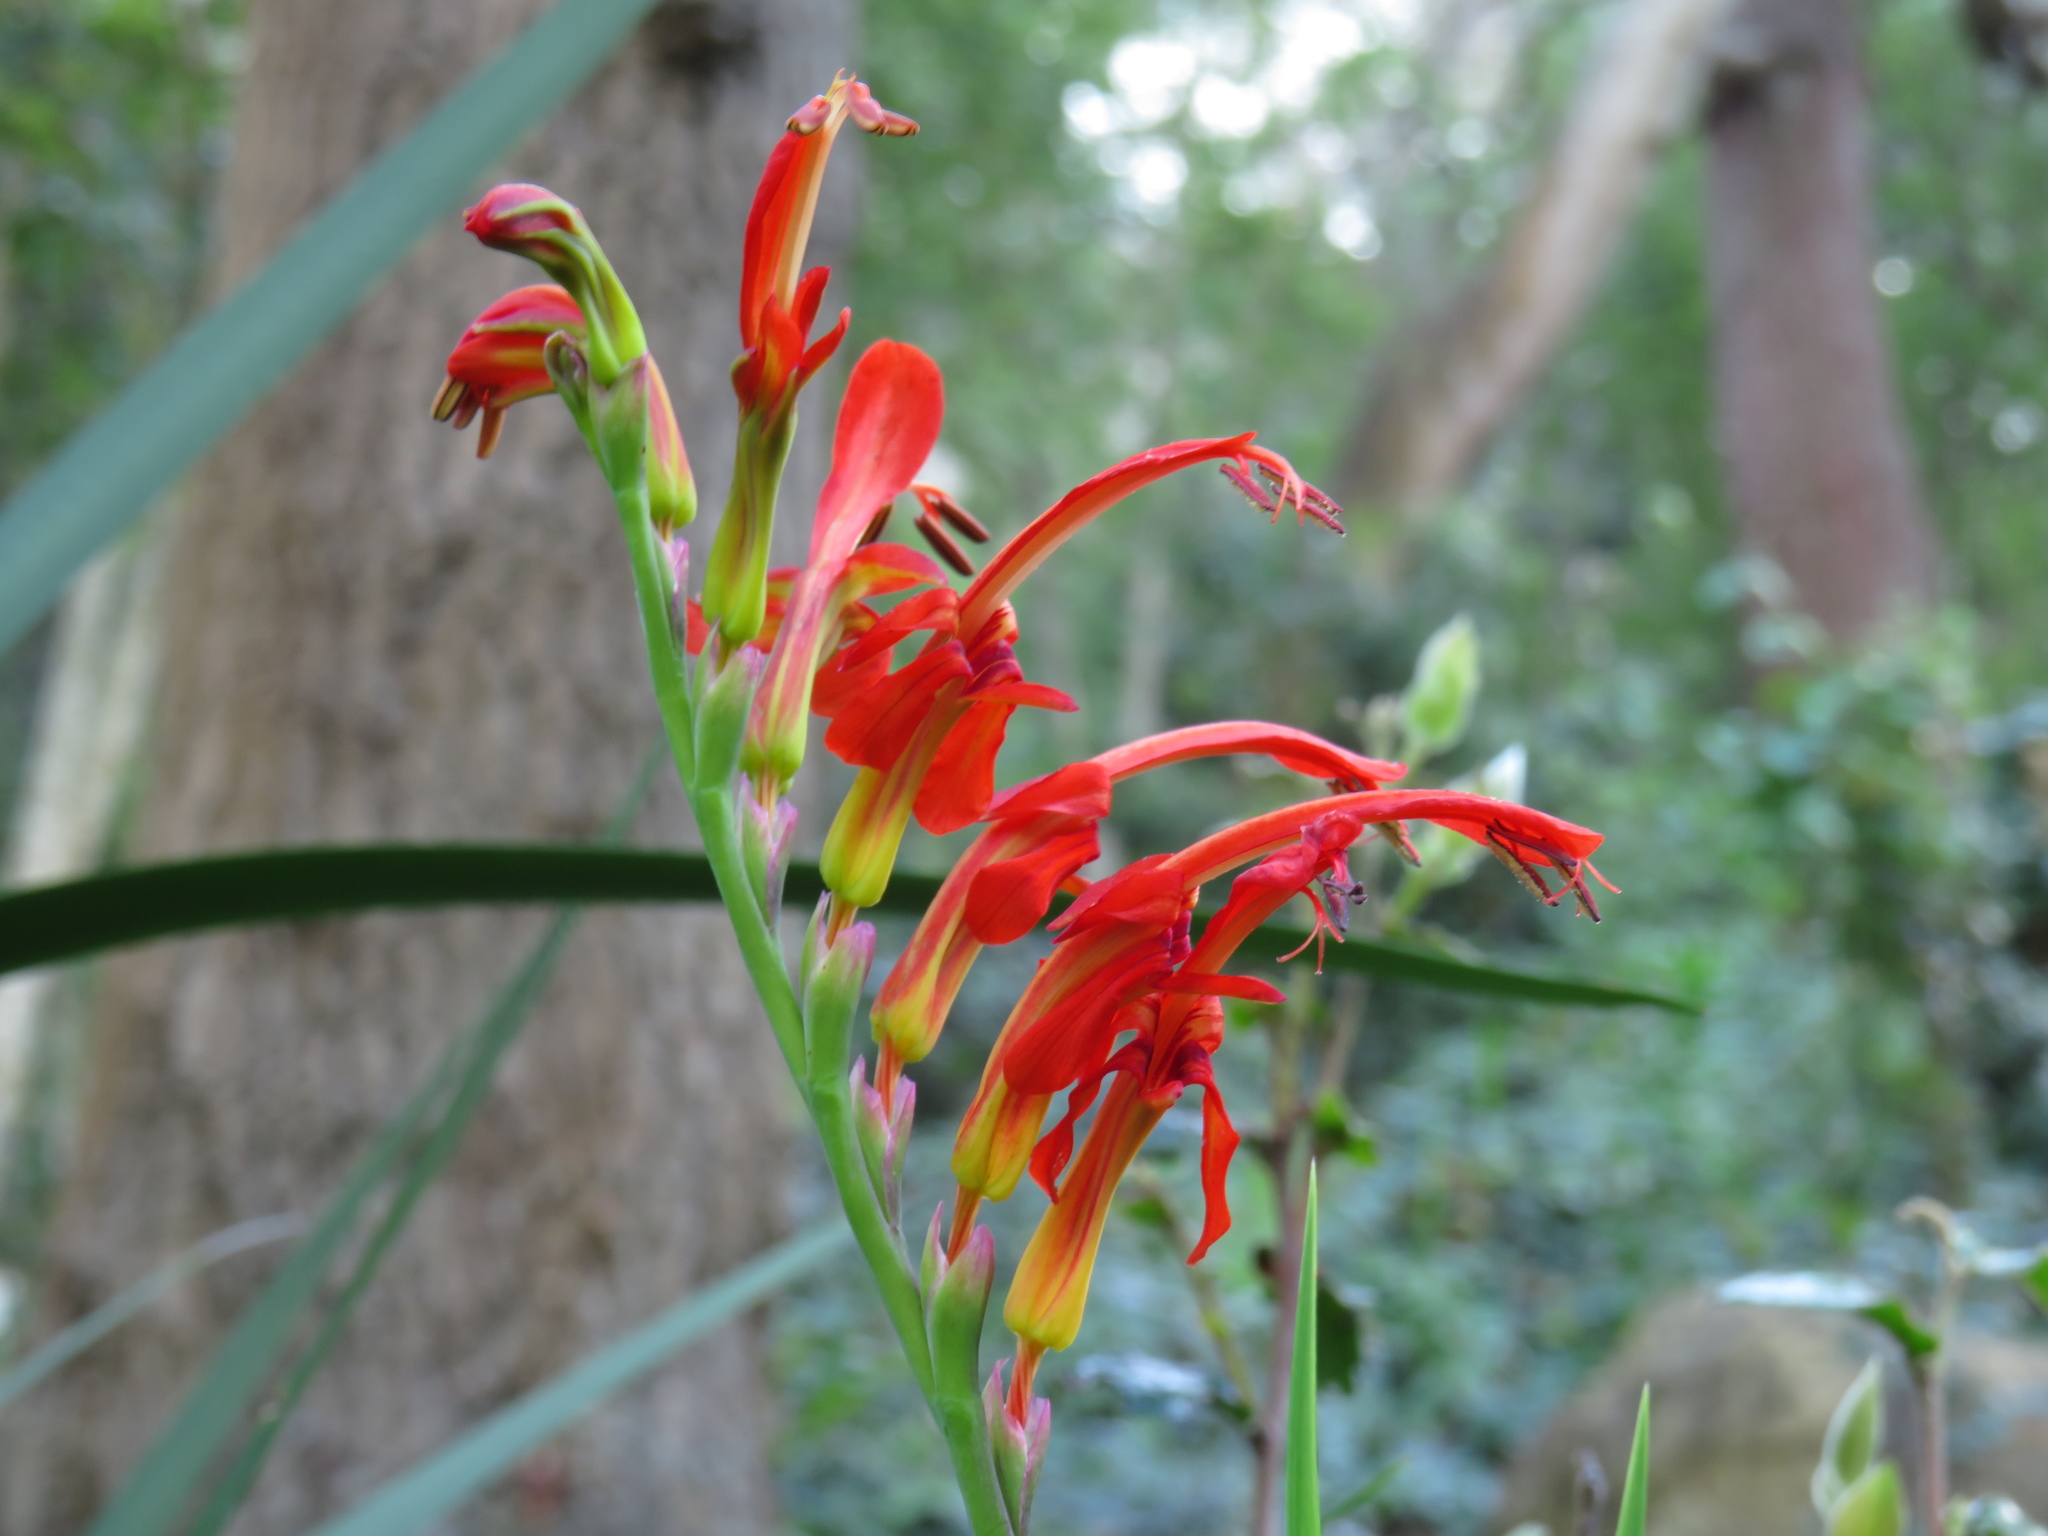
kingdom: Plantae
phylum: Tracheophyta
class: Liliopsida
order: Asparagales
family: Iridaceae
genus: Chasmanthe
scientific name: Chasmanthe aethiopica
